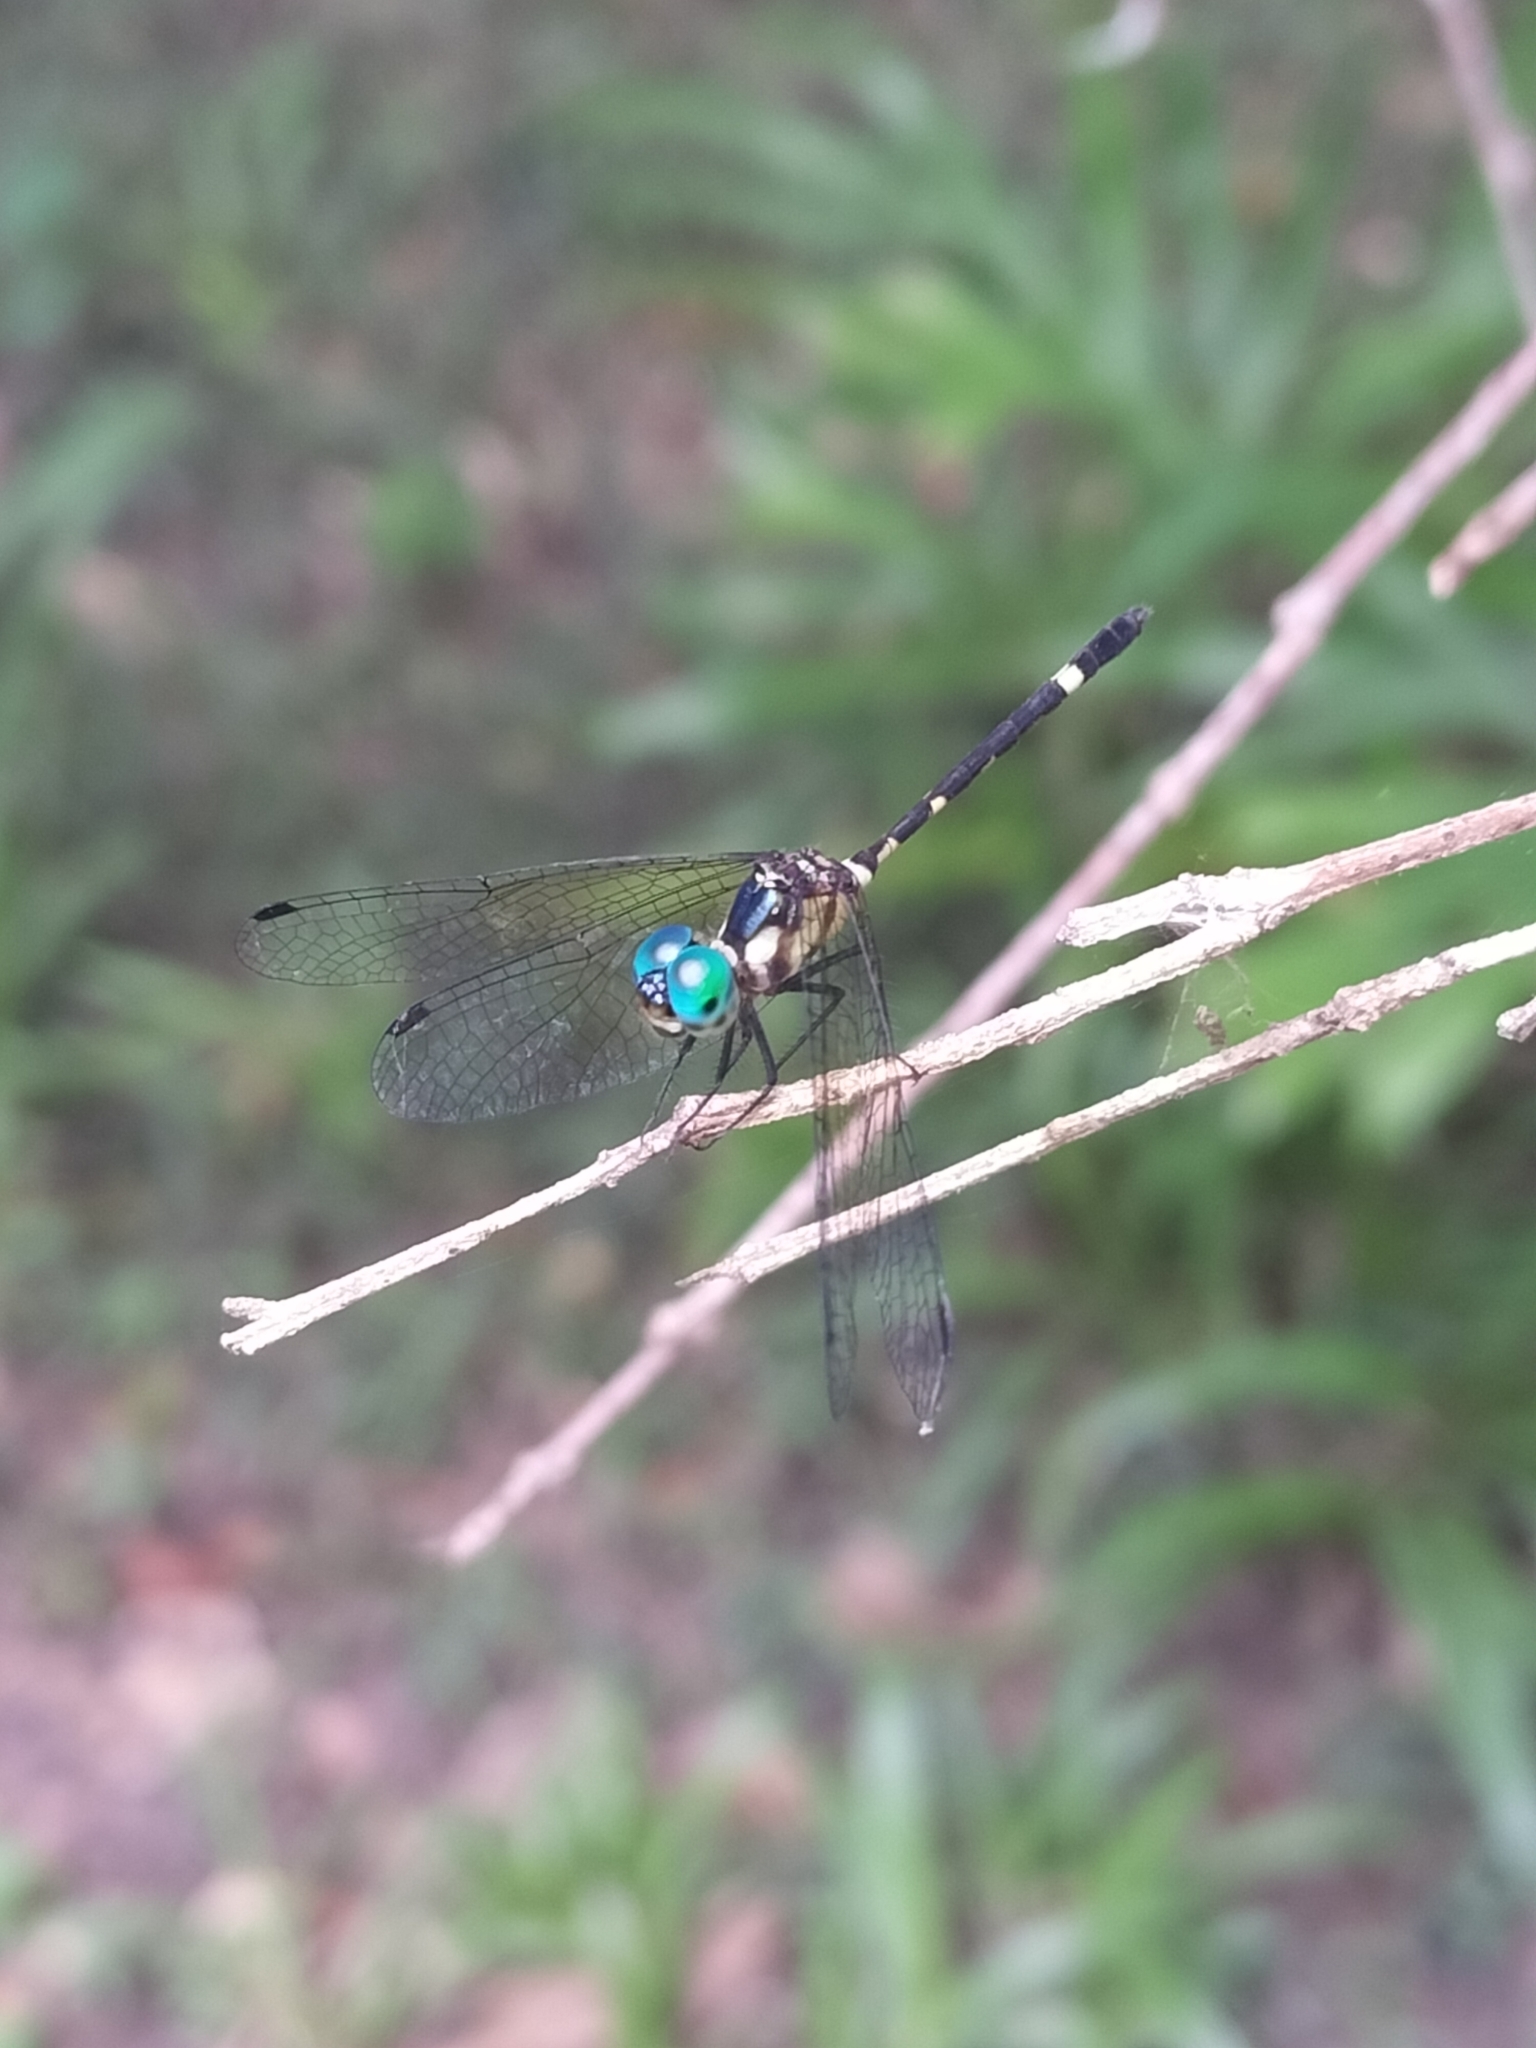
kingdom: Animalia
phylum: Arthropoda
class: Insecta
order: Odonata
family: Libellulidae
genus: Tetrathemis
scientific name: Tetrathemis irregularis
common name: Elf
